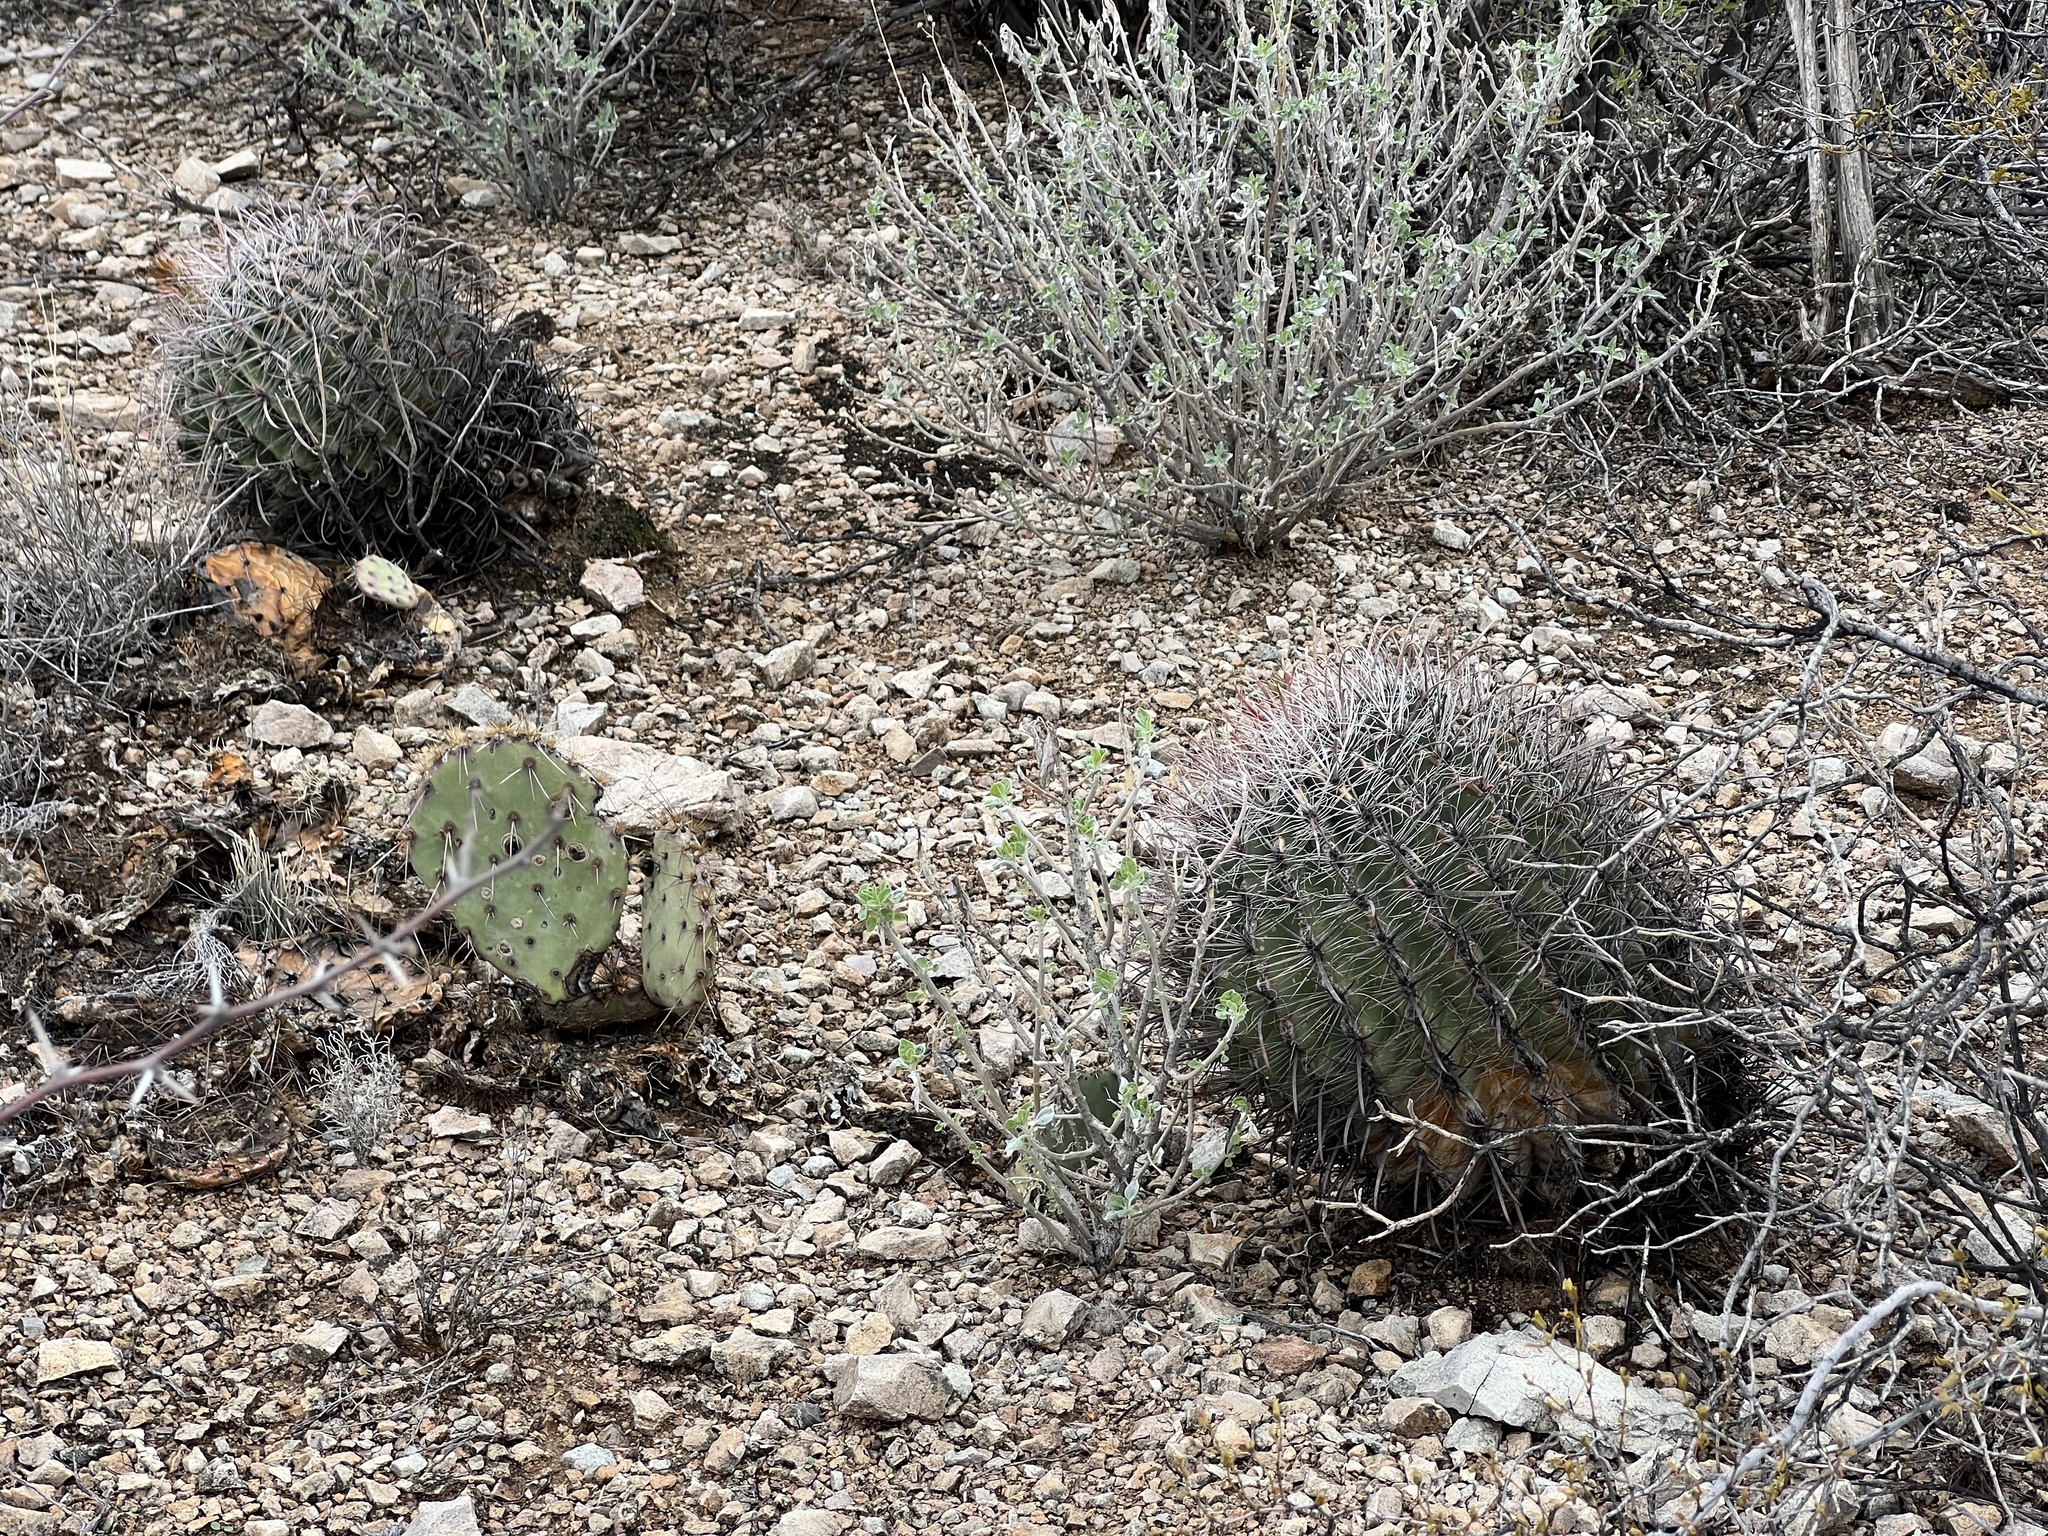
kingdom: Plantae
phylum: Tracheophyta
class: Magnoliopsida
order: Caryophyllales
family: Cactaceae
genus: Ferocactus
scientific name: Ferocactus wislizeni
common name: Candy barrel cactus
